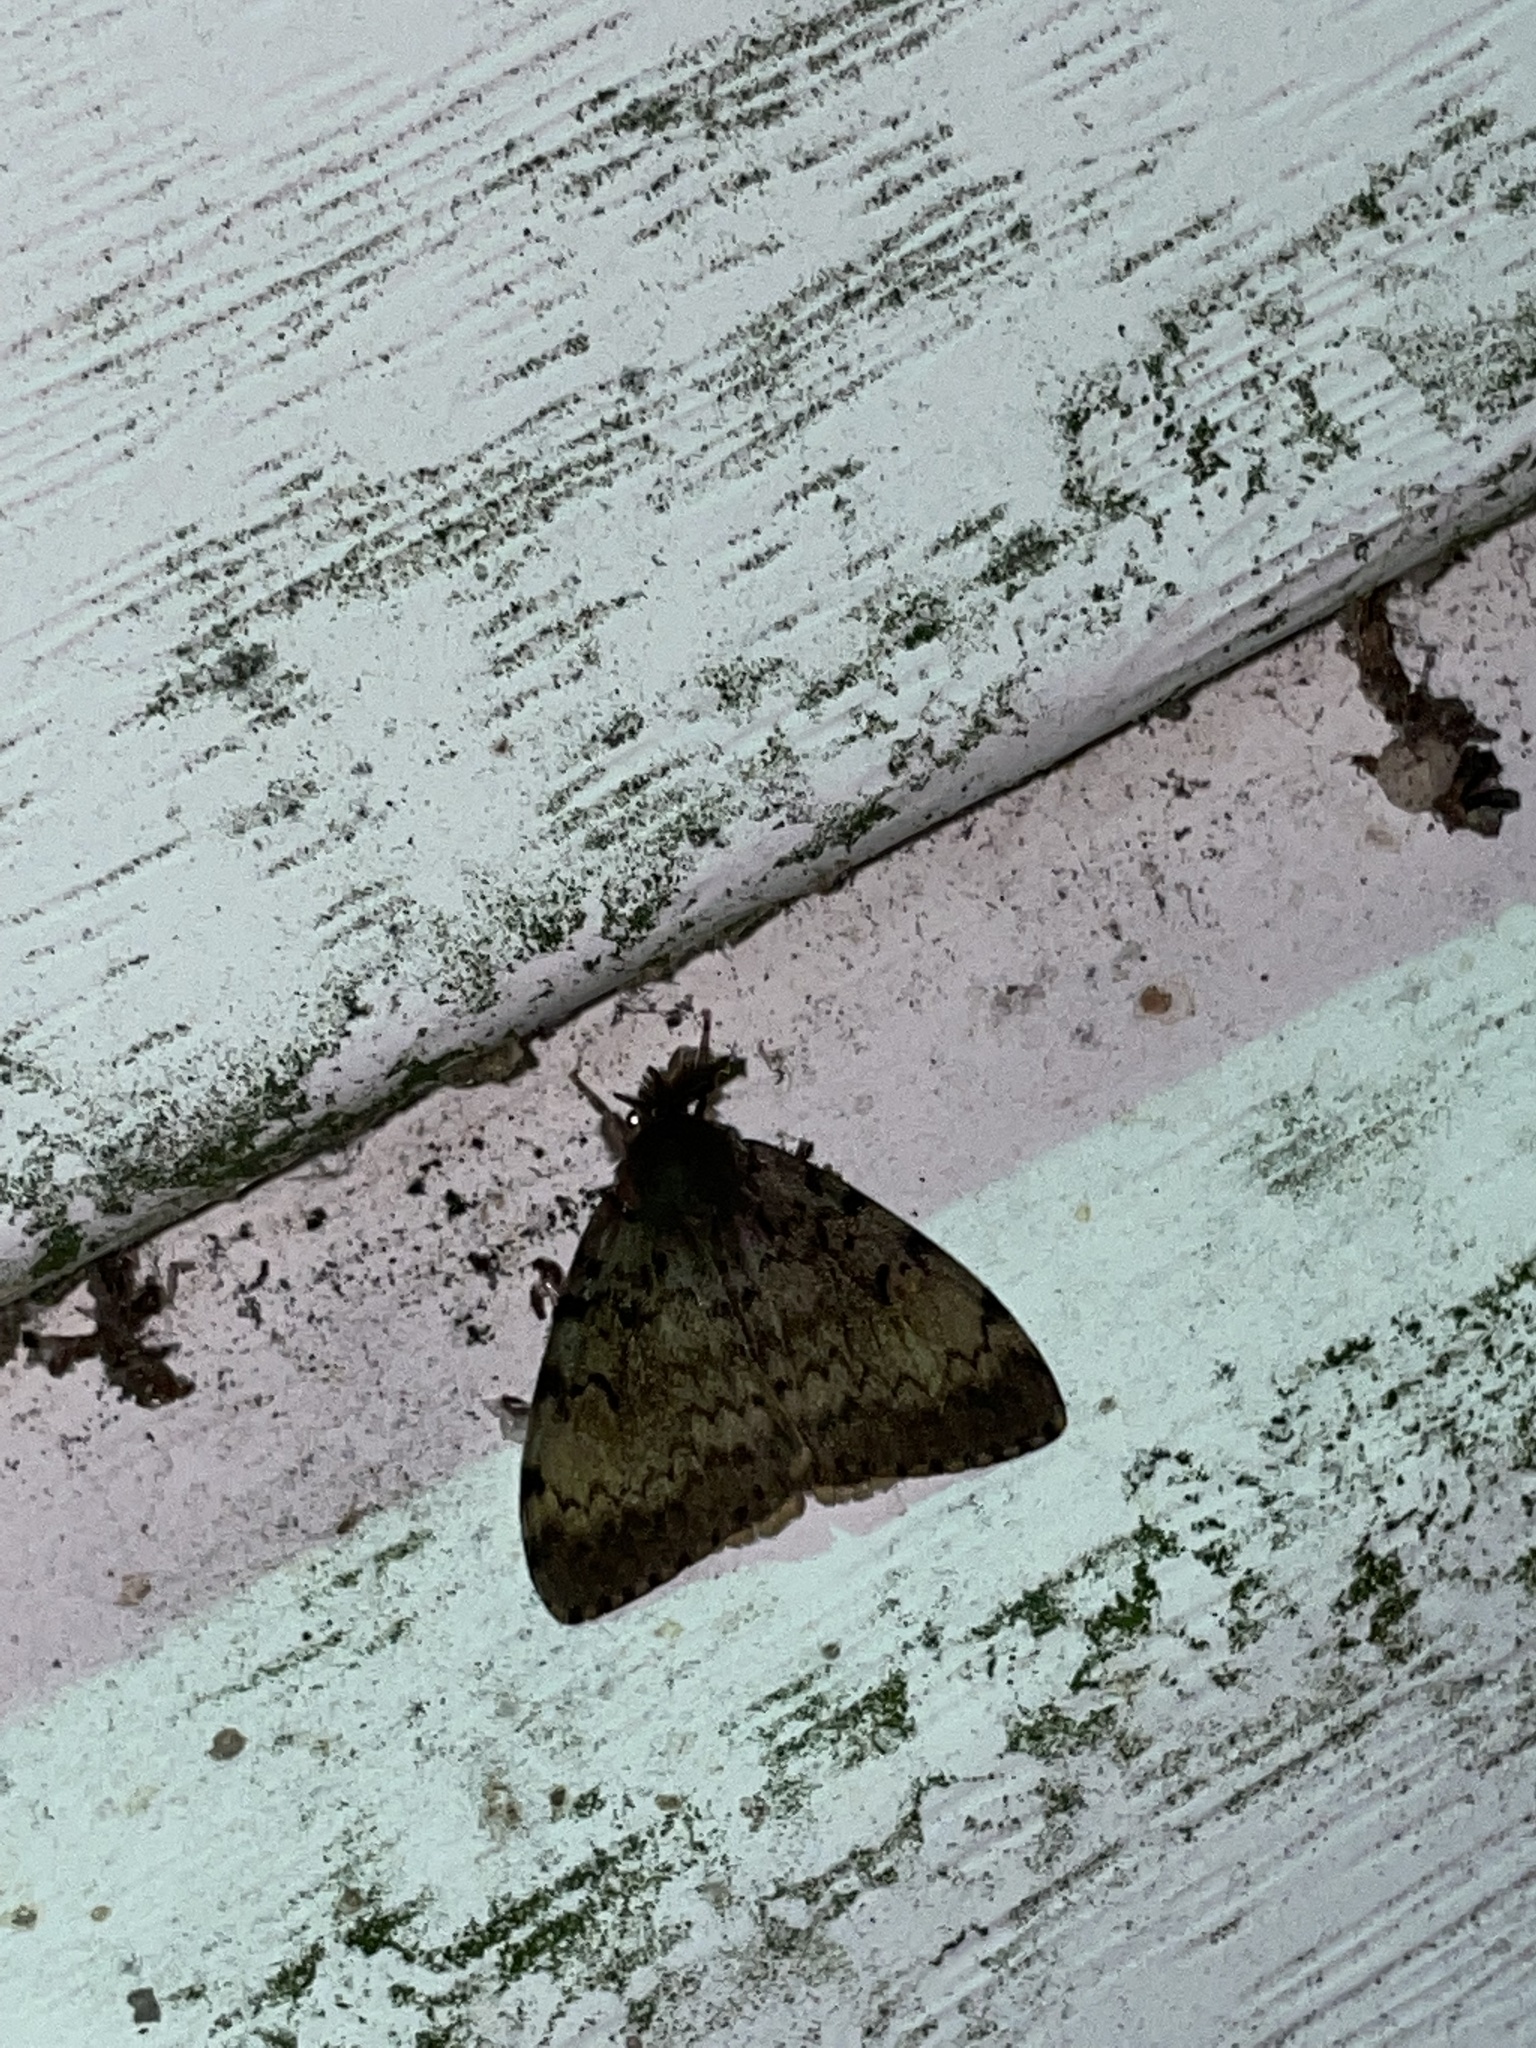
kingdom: Animalia
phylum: Arthropoda
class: Insecta
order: Lepidoptera
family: Erebidae
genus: Lymantria
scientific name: Lymantria dispar
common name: Gypsy moth
